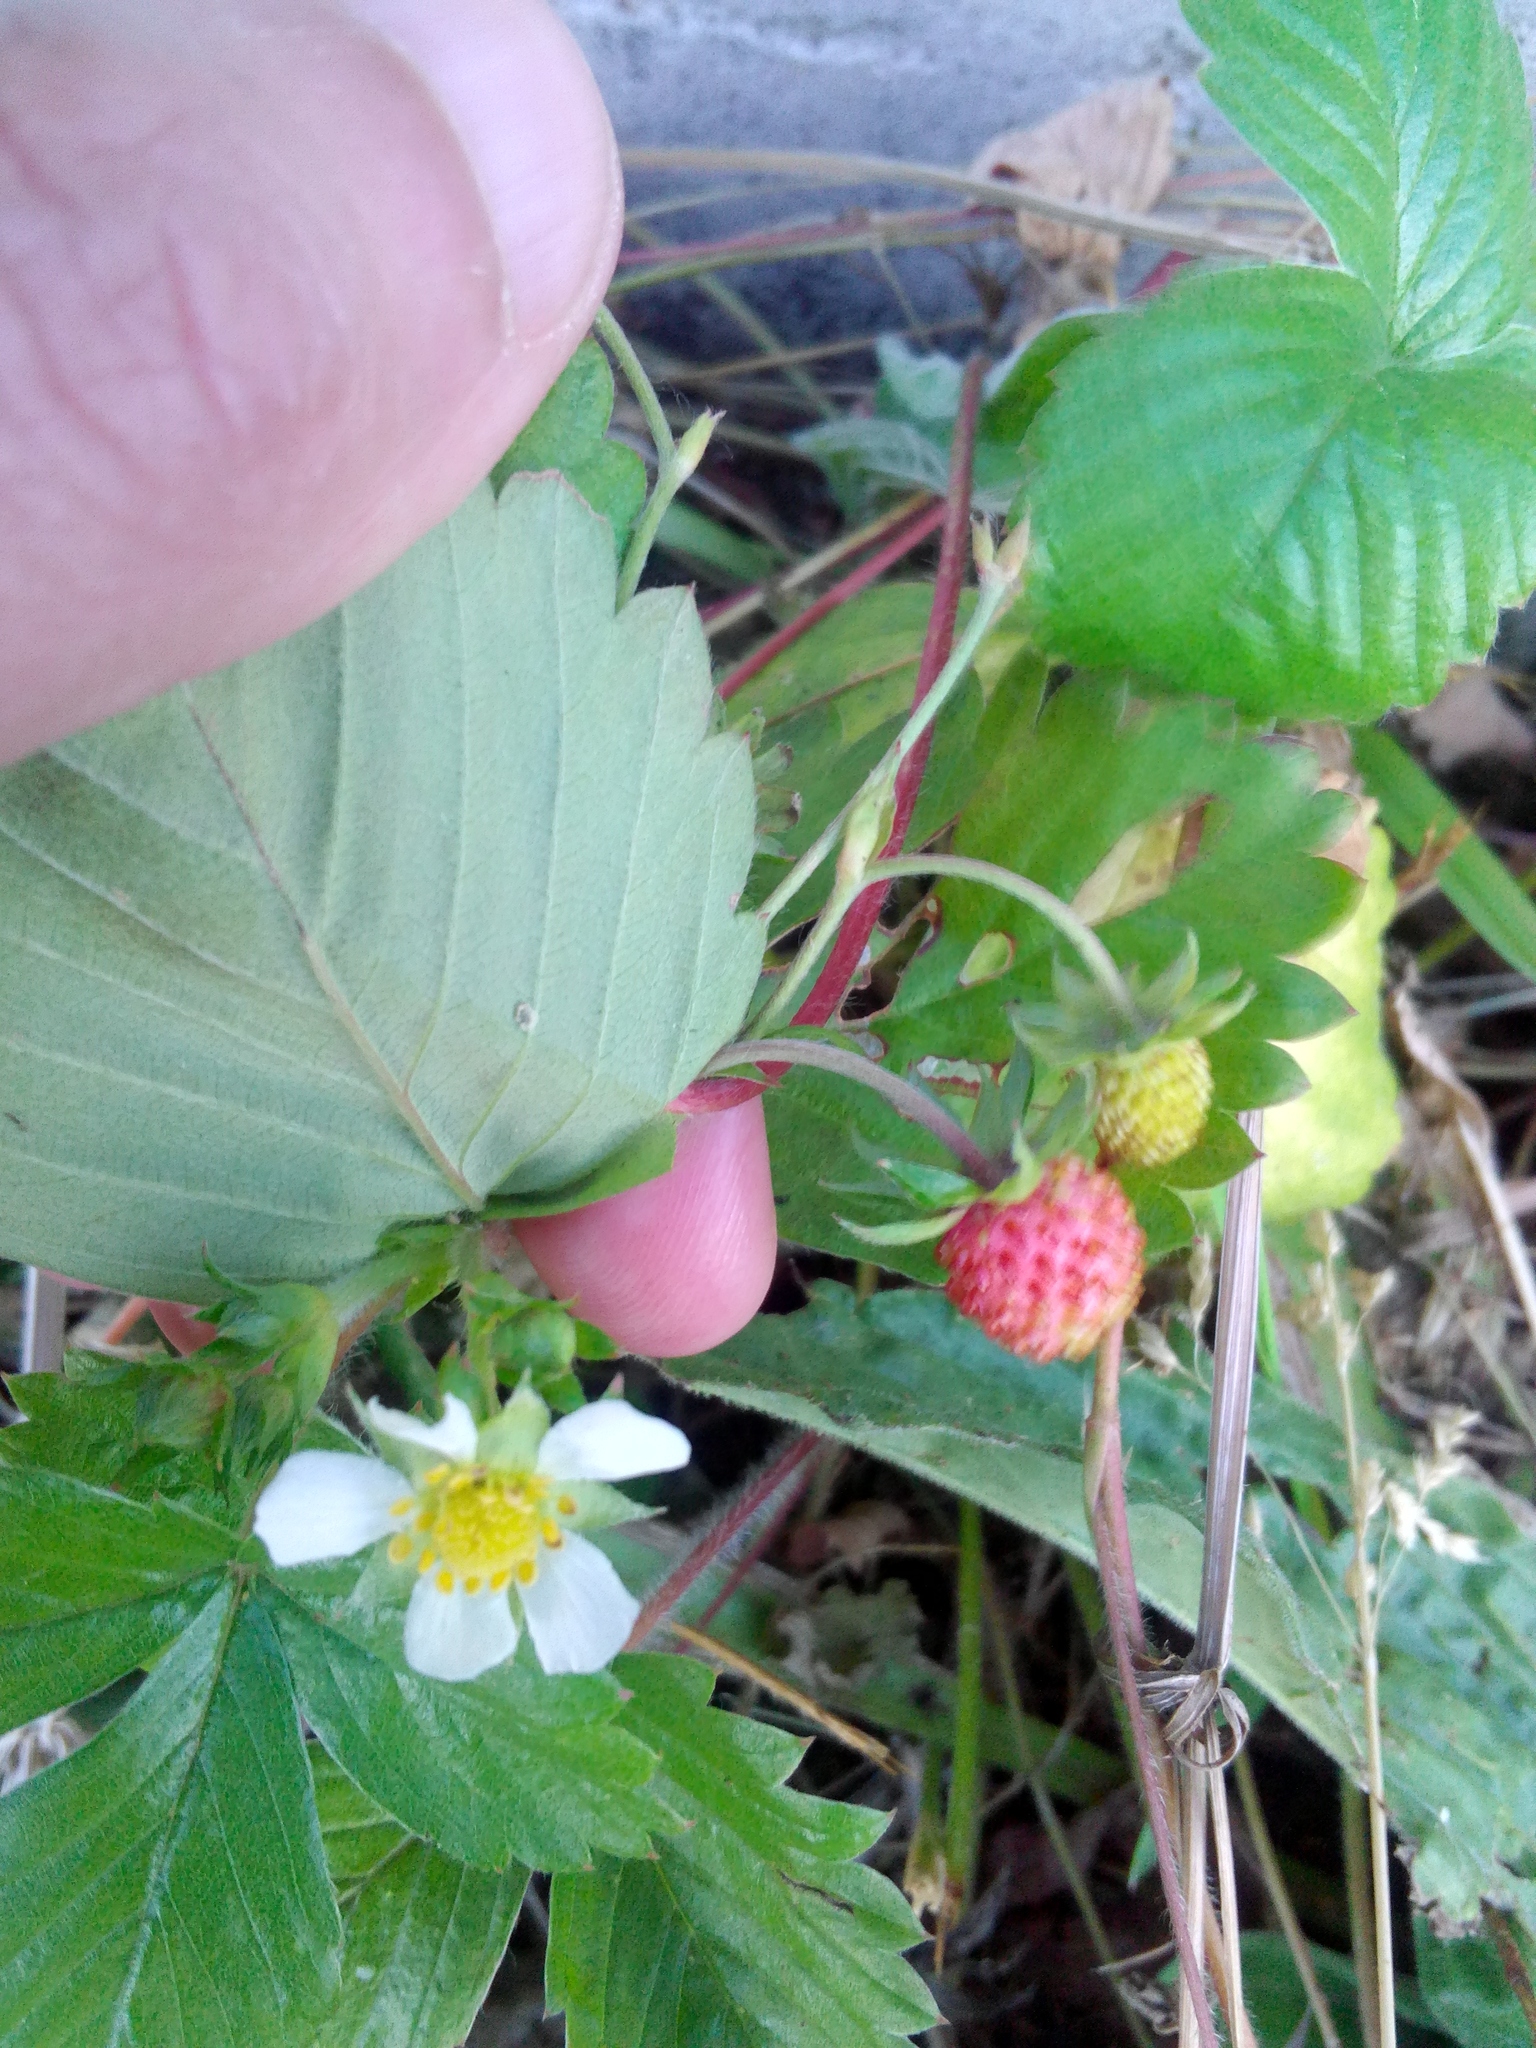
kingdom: Plantae
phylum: Tracheophyta
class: Magnoliopsida
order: Rosales
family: Rosaceae
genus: Fragaria
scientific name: Fragaria vesca
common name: Wild strawberry
